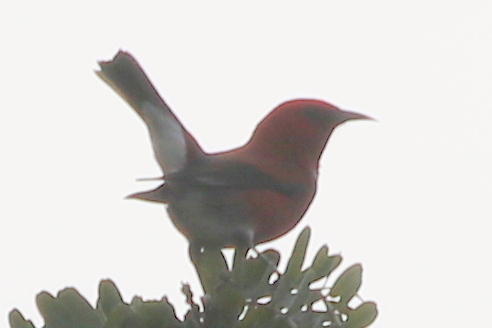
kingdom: Animalia
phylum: Chordata
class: Aves
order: Passeriformes
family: Fringillidae
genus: Himatione
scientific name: Himatione sanguinea
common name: Apapane
